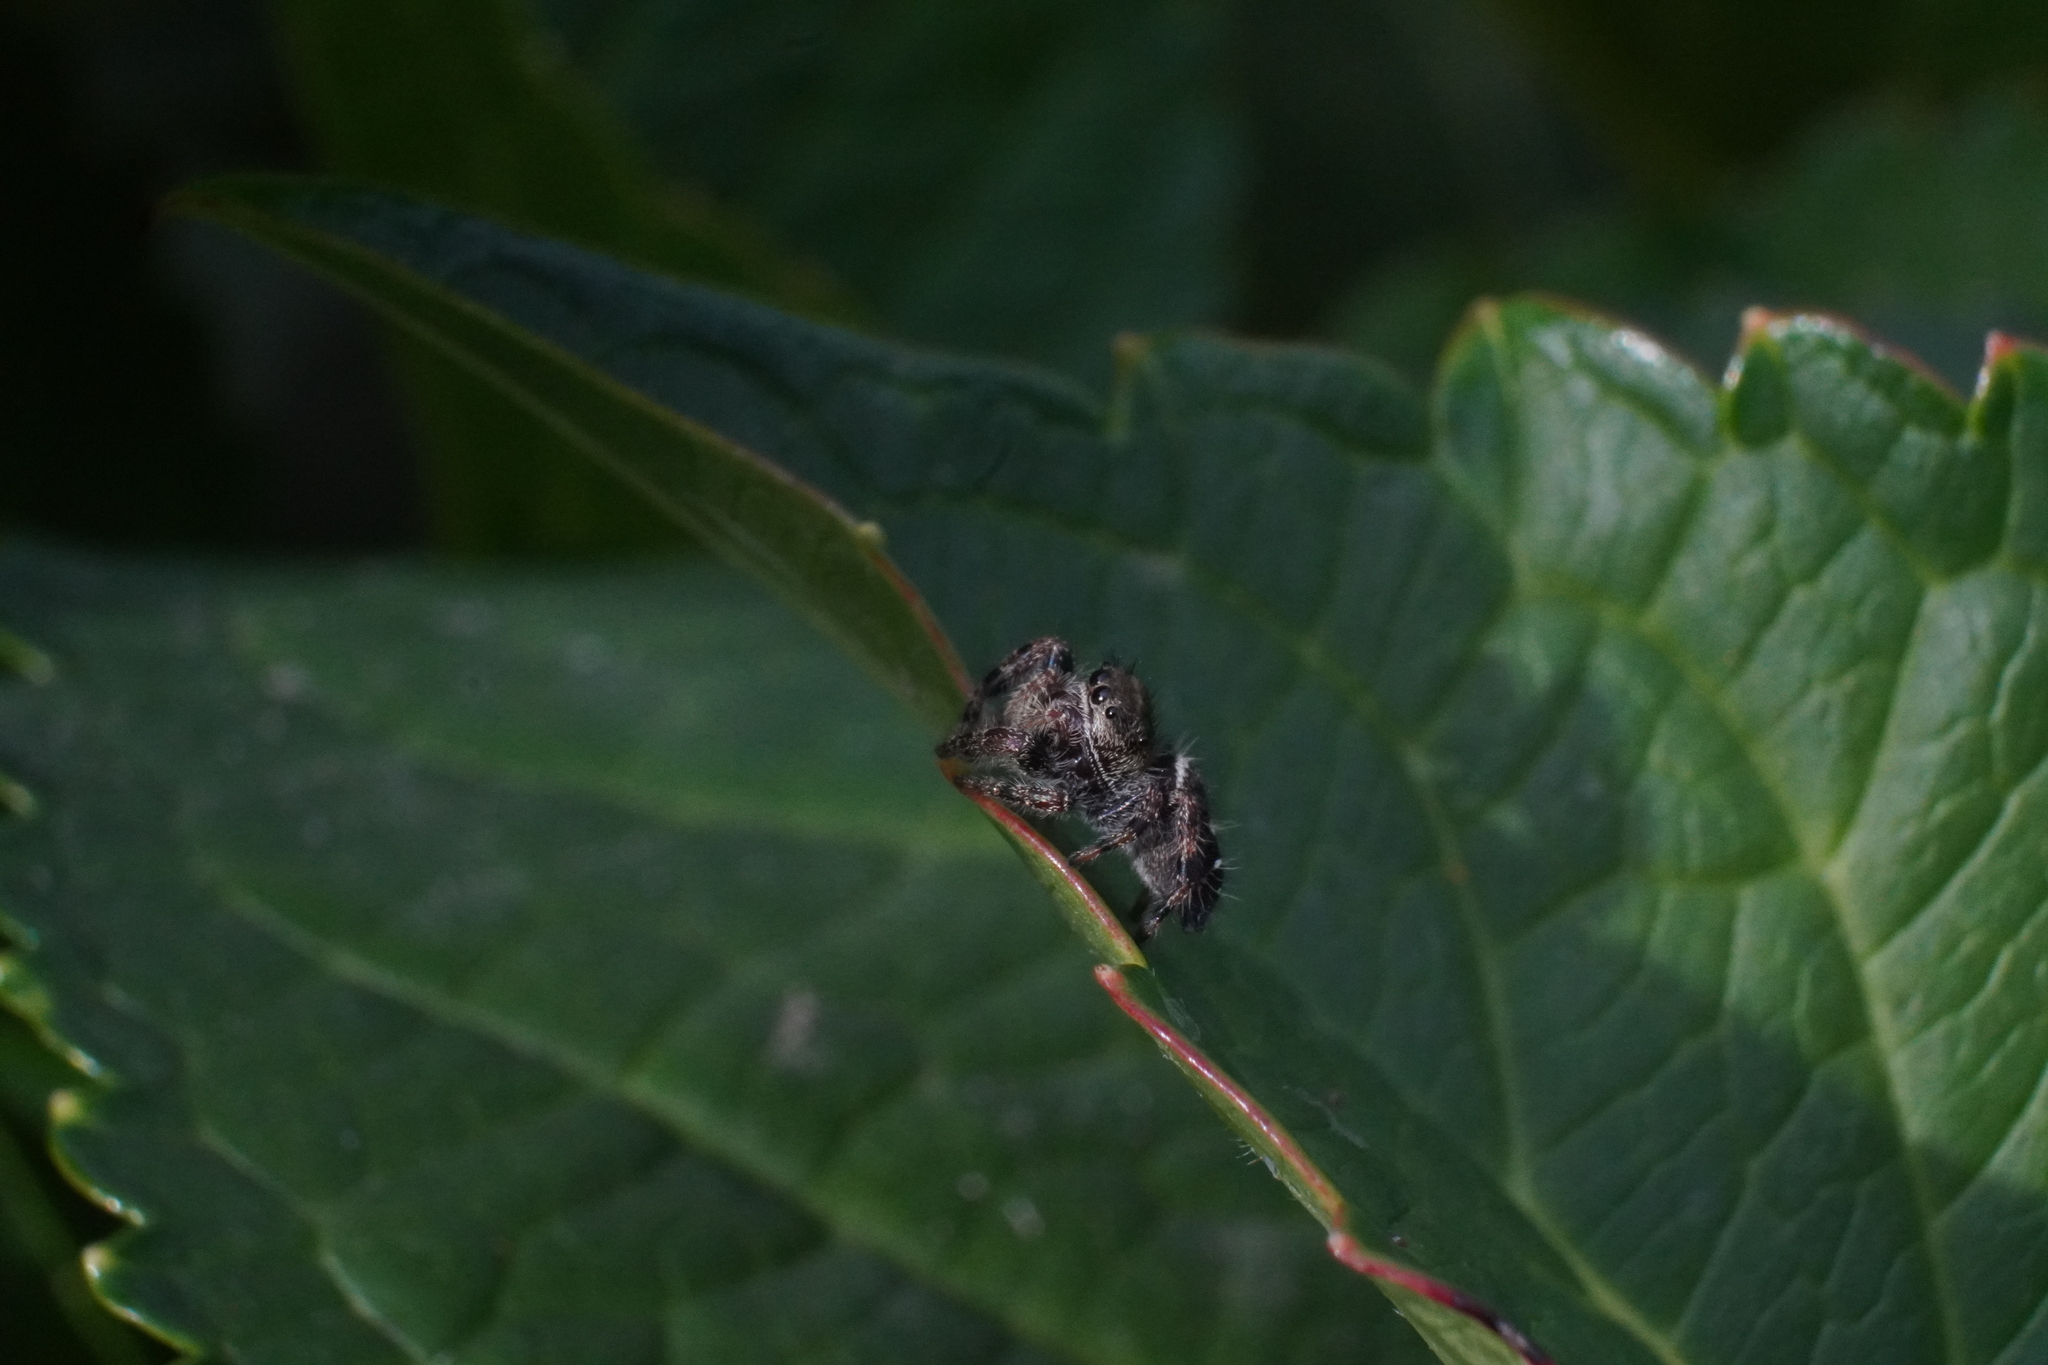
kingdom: Animalia
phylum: Arthropoda
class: Arachnida
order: Araneae
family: Salticidae
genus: Phidippus
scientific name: Phidippus audax
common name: Bold jumper
